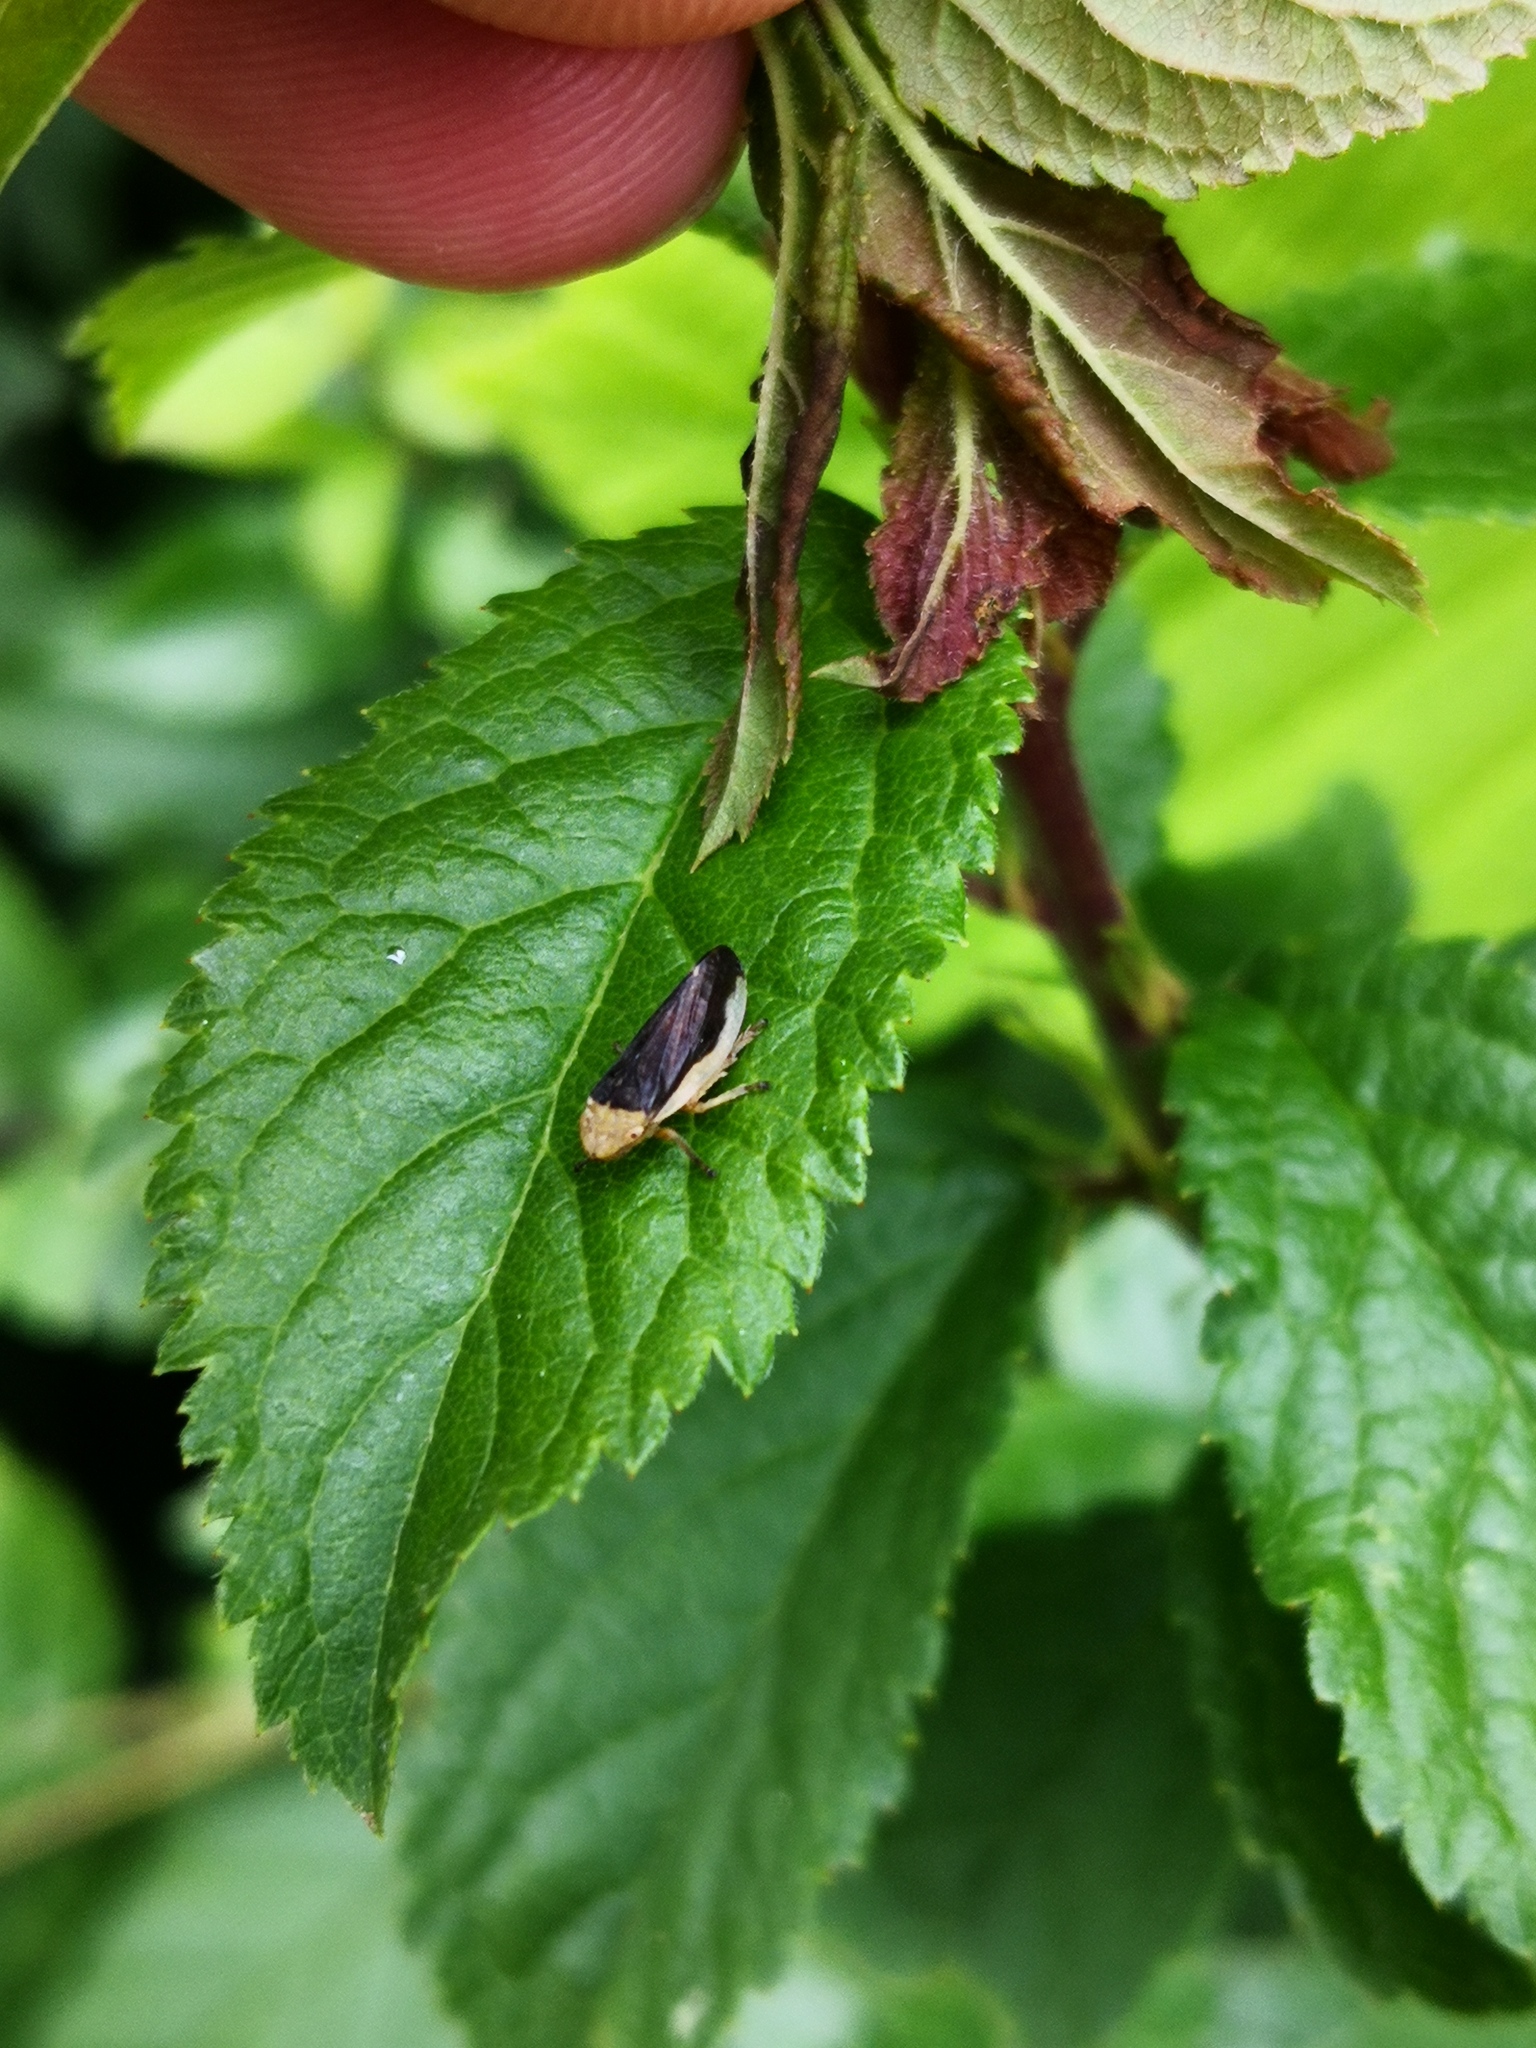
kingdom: Animalia
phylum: Arthropoda
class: Insecta
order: Hemiptera
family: Aphrophoridae
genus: Philaenus
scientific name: Philaenus spumarius
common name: Meadow spittlebug
